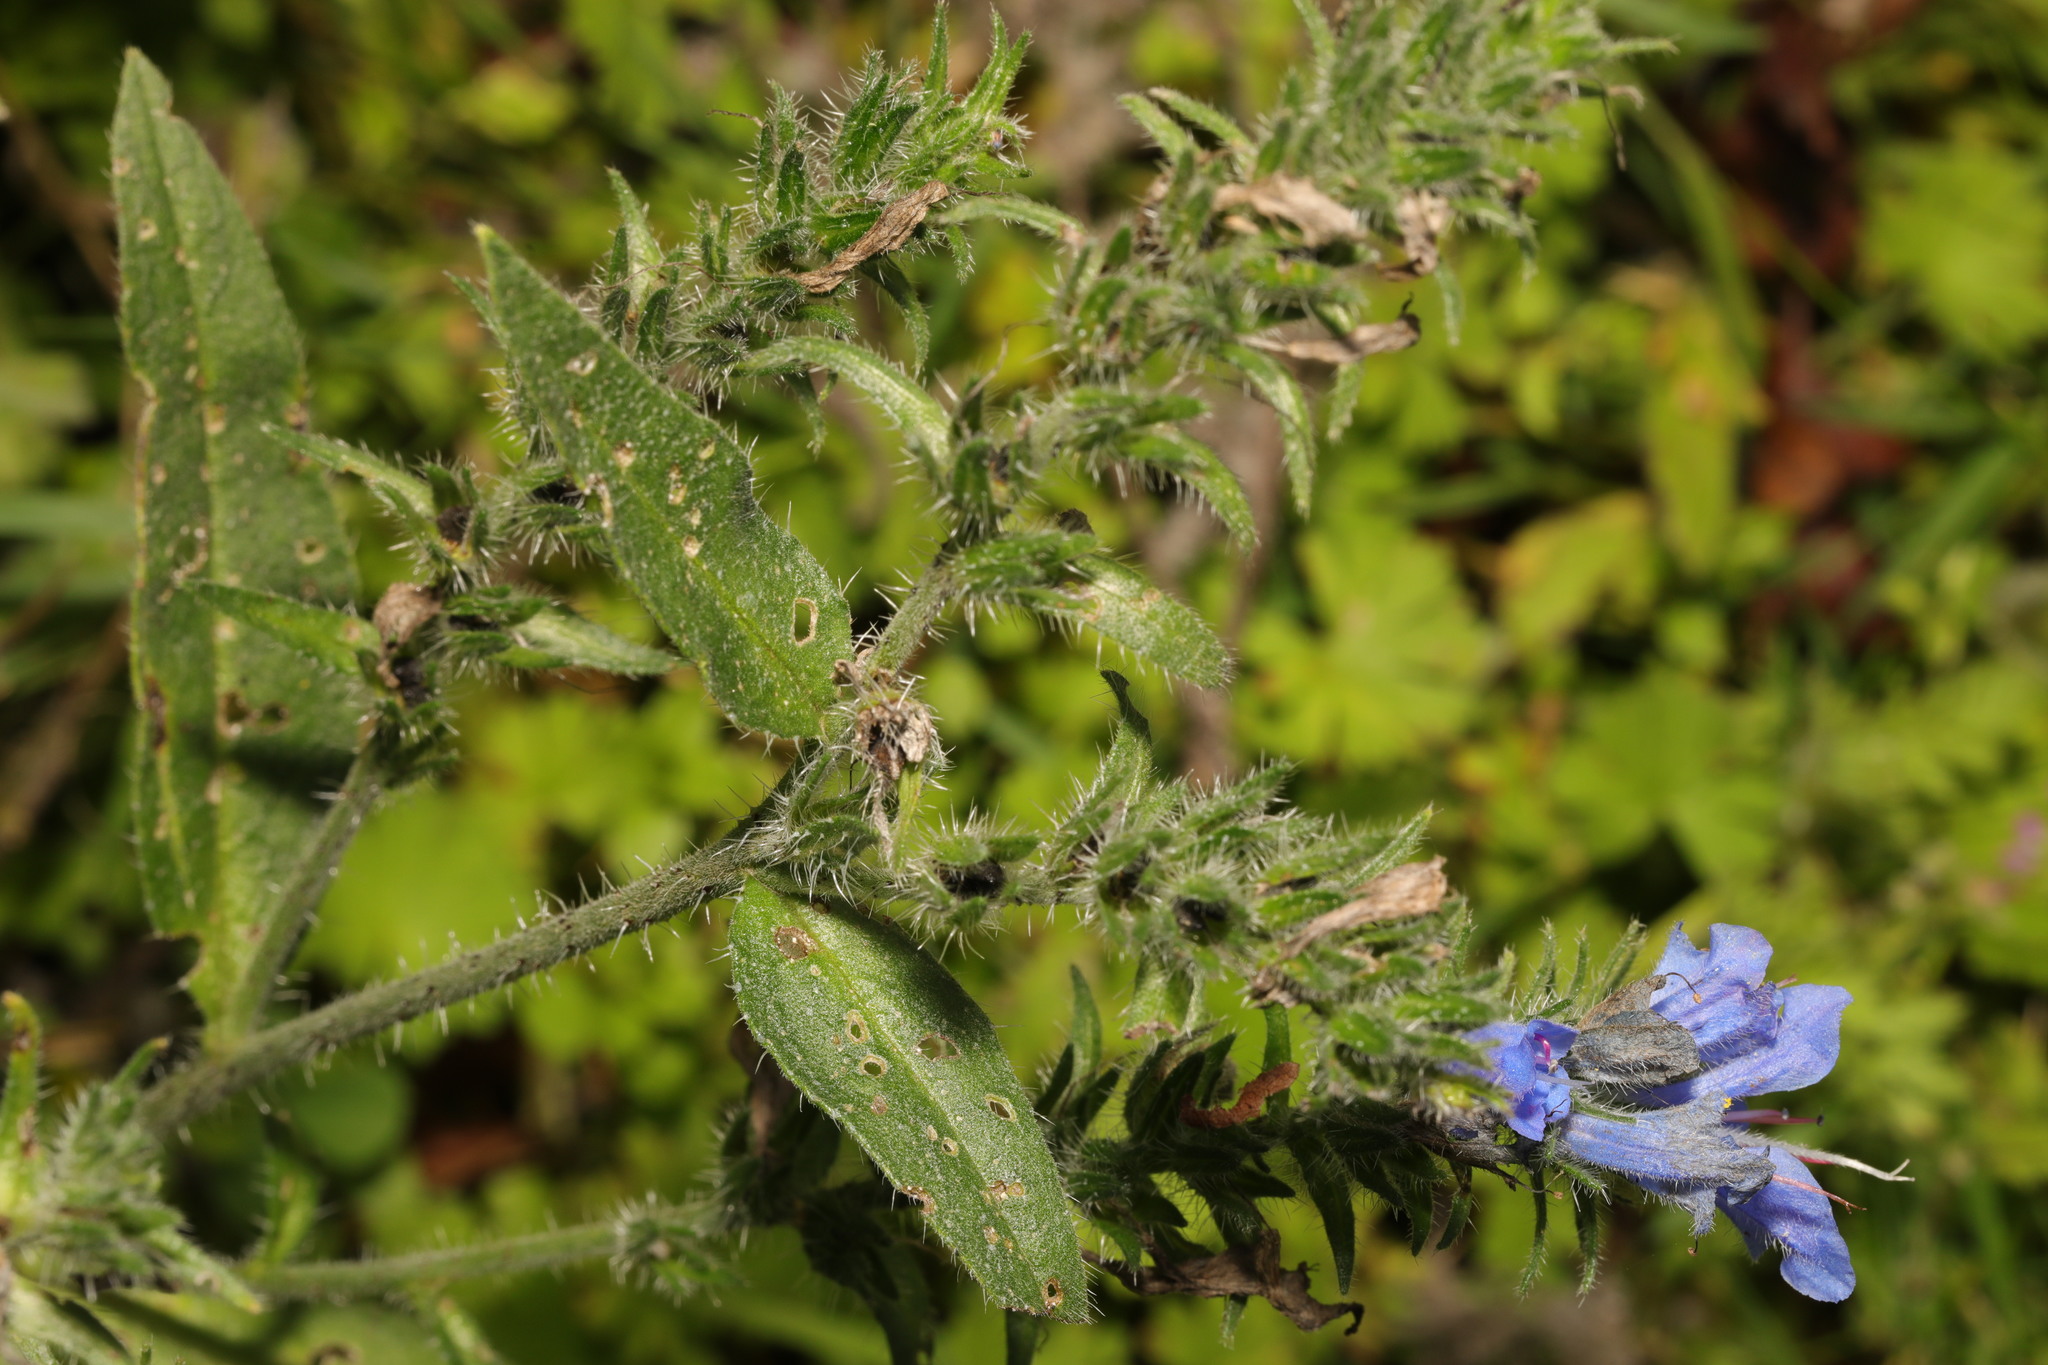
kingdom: Plantae
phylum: Tracheophyta
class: Magnoliopsida
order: Boraginales
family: Boraginaceae
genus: Echium
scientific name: Echium vulgare
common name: Common viper's bugloss
